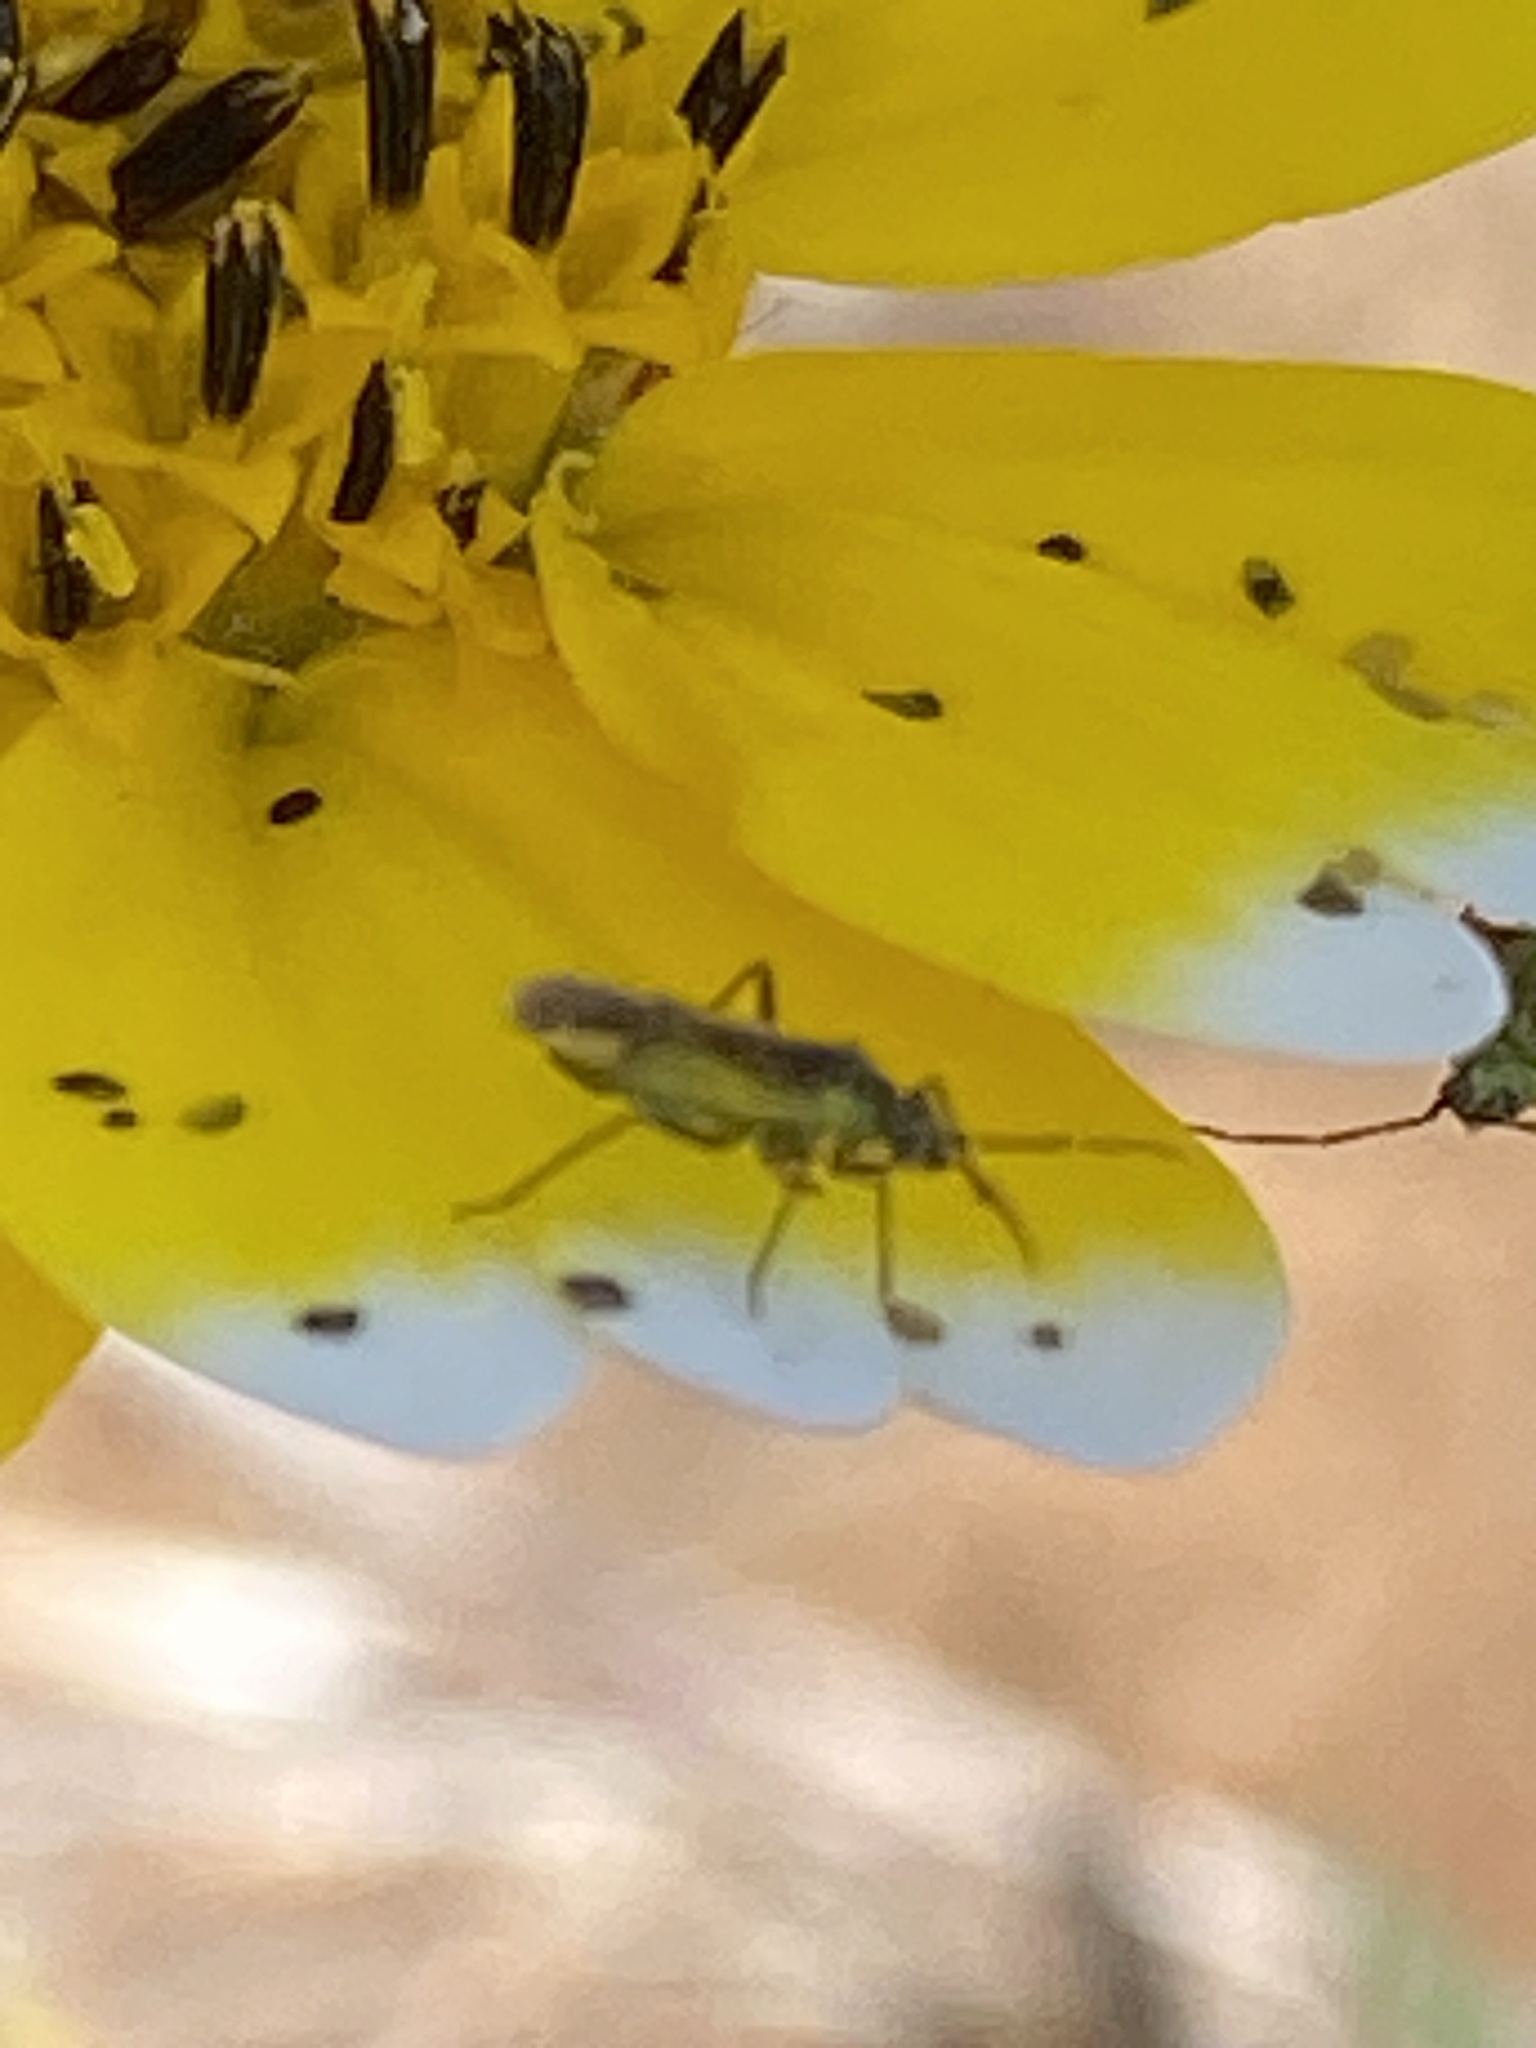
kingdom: Animalia
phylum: Arthropoda
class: Insecta
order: Hemiptera
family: Miridae
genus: Macrotylus
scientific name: Macrotylus dorsalis
